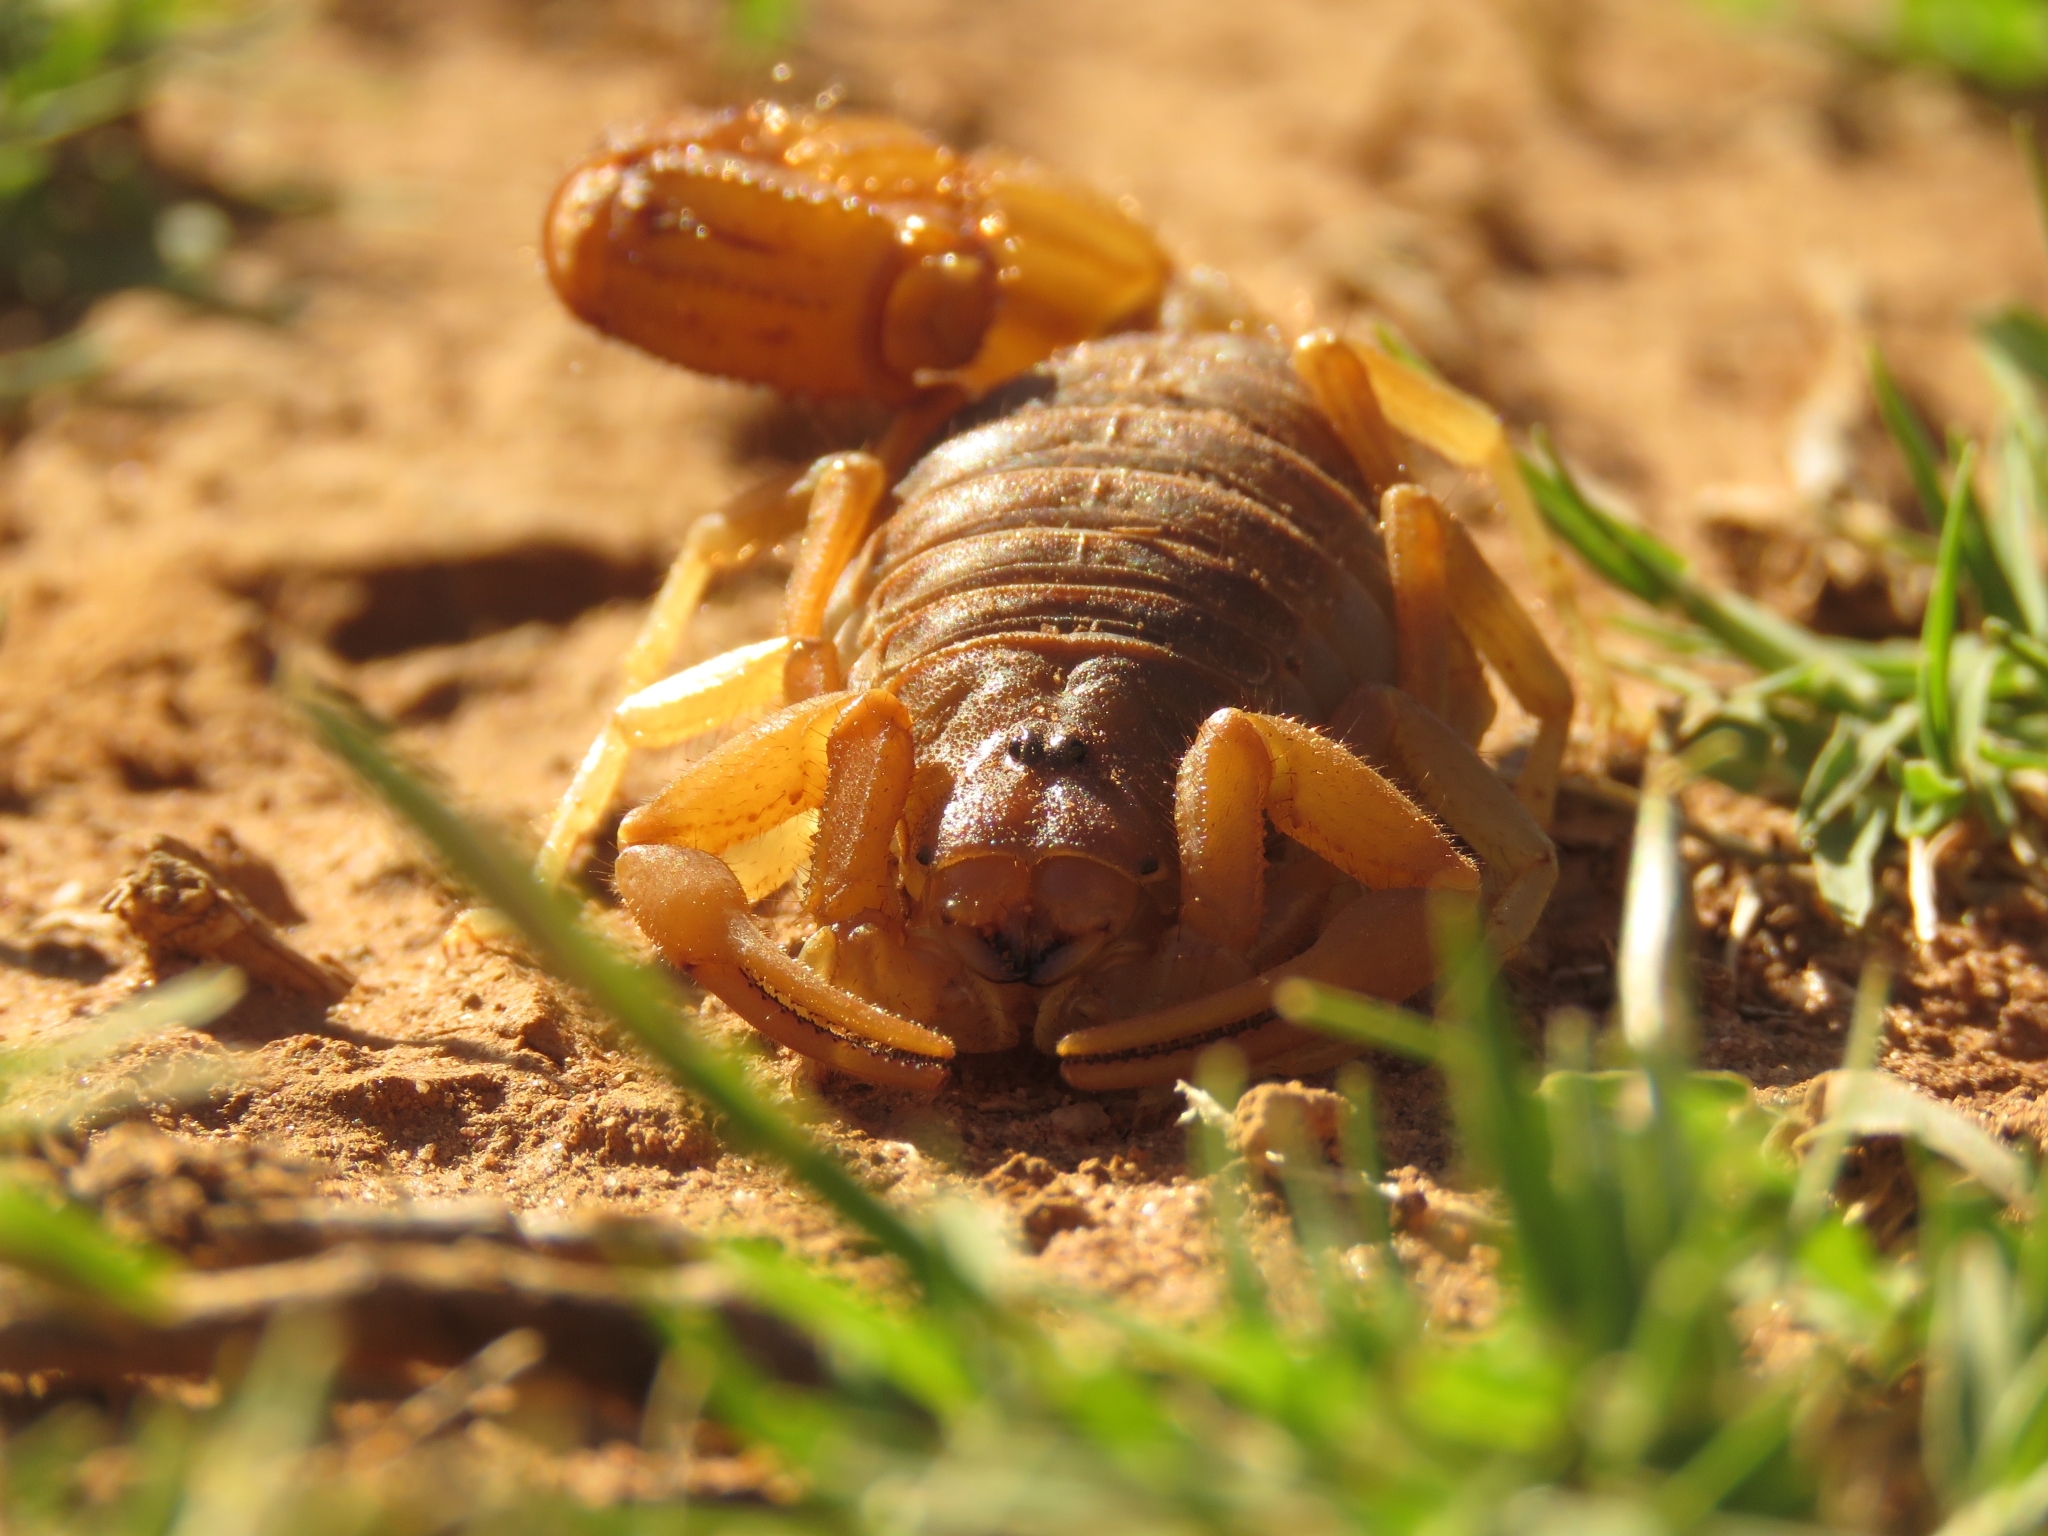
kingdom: Animalia
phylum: Arthropoda
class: Arachnida
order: Scorpiones
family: Buthidae
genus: Parabuthus
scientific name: Parabuthus planicauda
